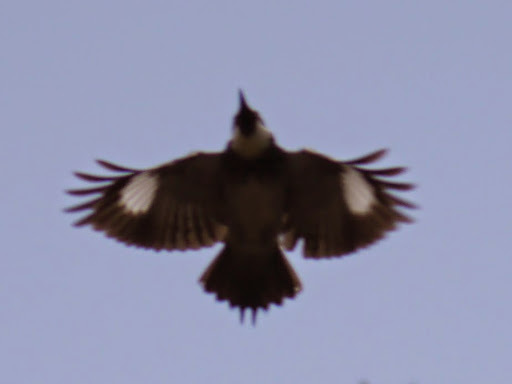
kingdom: Animalia
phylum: Chordata
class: Aves
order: Piciformes
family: Picidae
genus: Melanerpes
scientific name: Melanerpes formicivorus
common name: Acorn woodpecker
